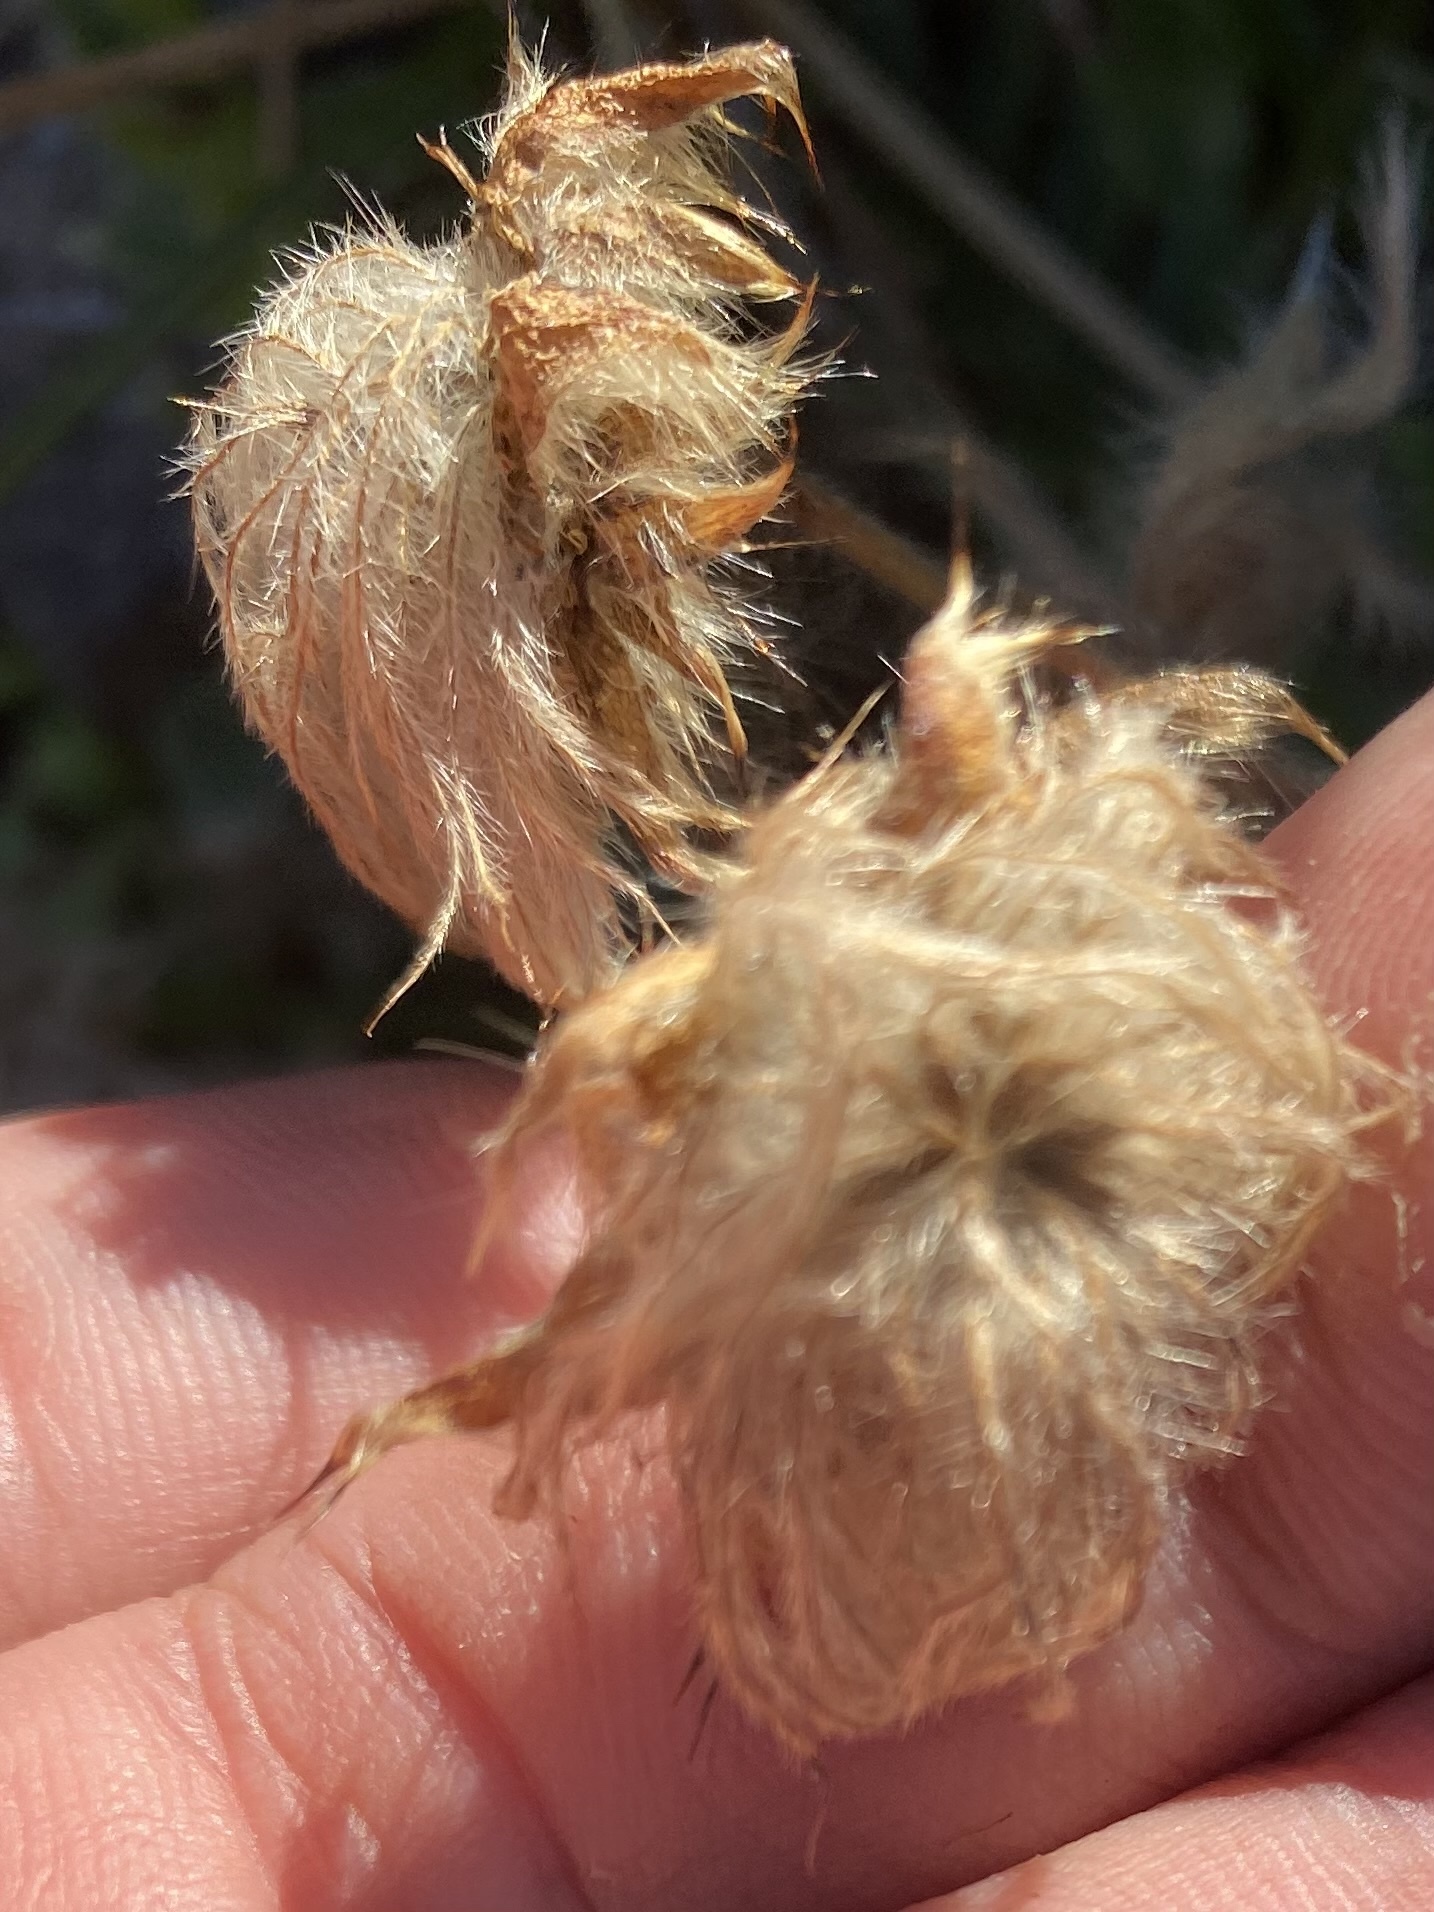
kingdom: Plantae
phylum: Tracheophyta
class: Magnoliopsida
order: Rosales
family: Rosaceae
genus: Geum
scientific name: Geum glaciale
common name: Glacier avens
